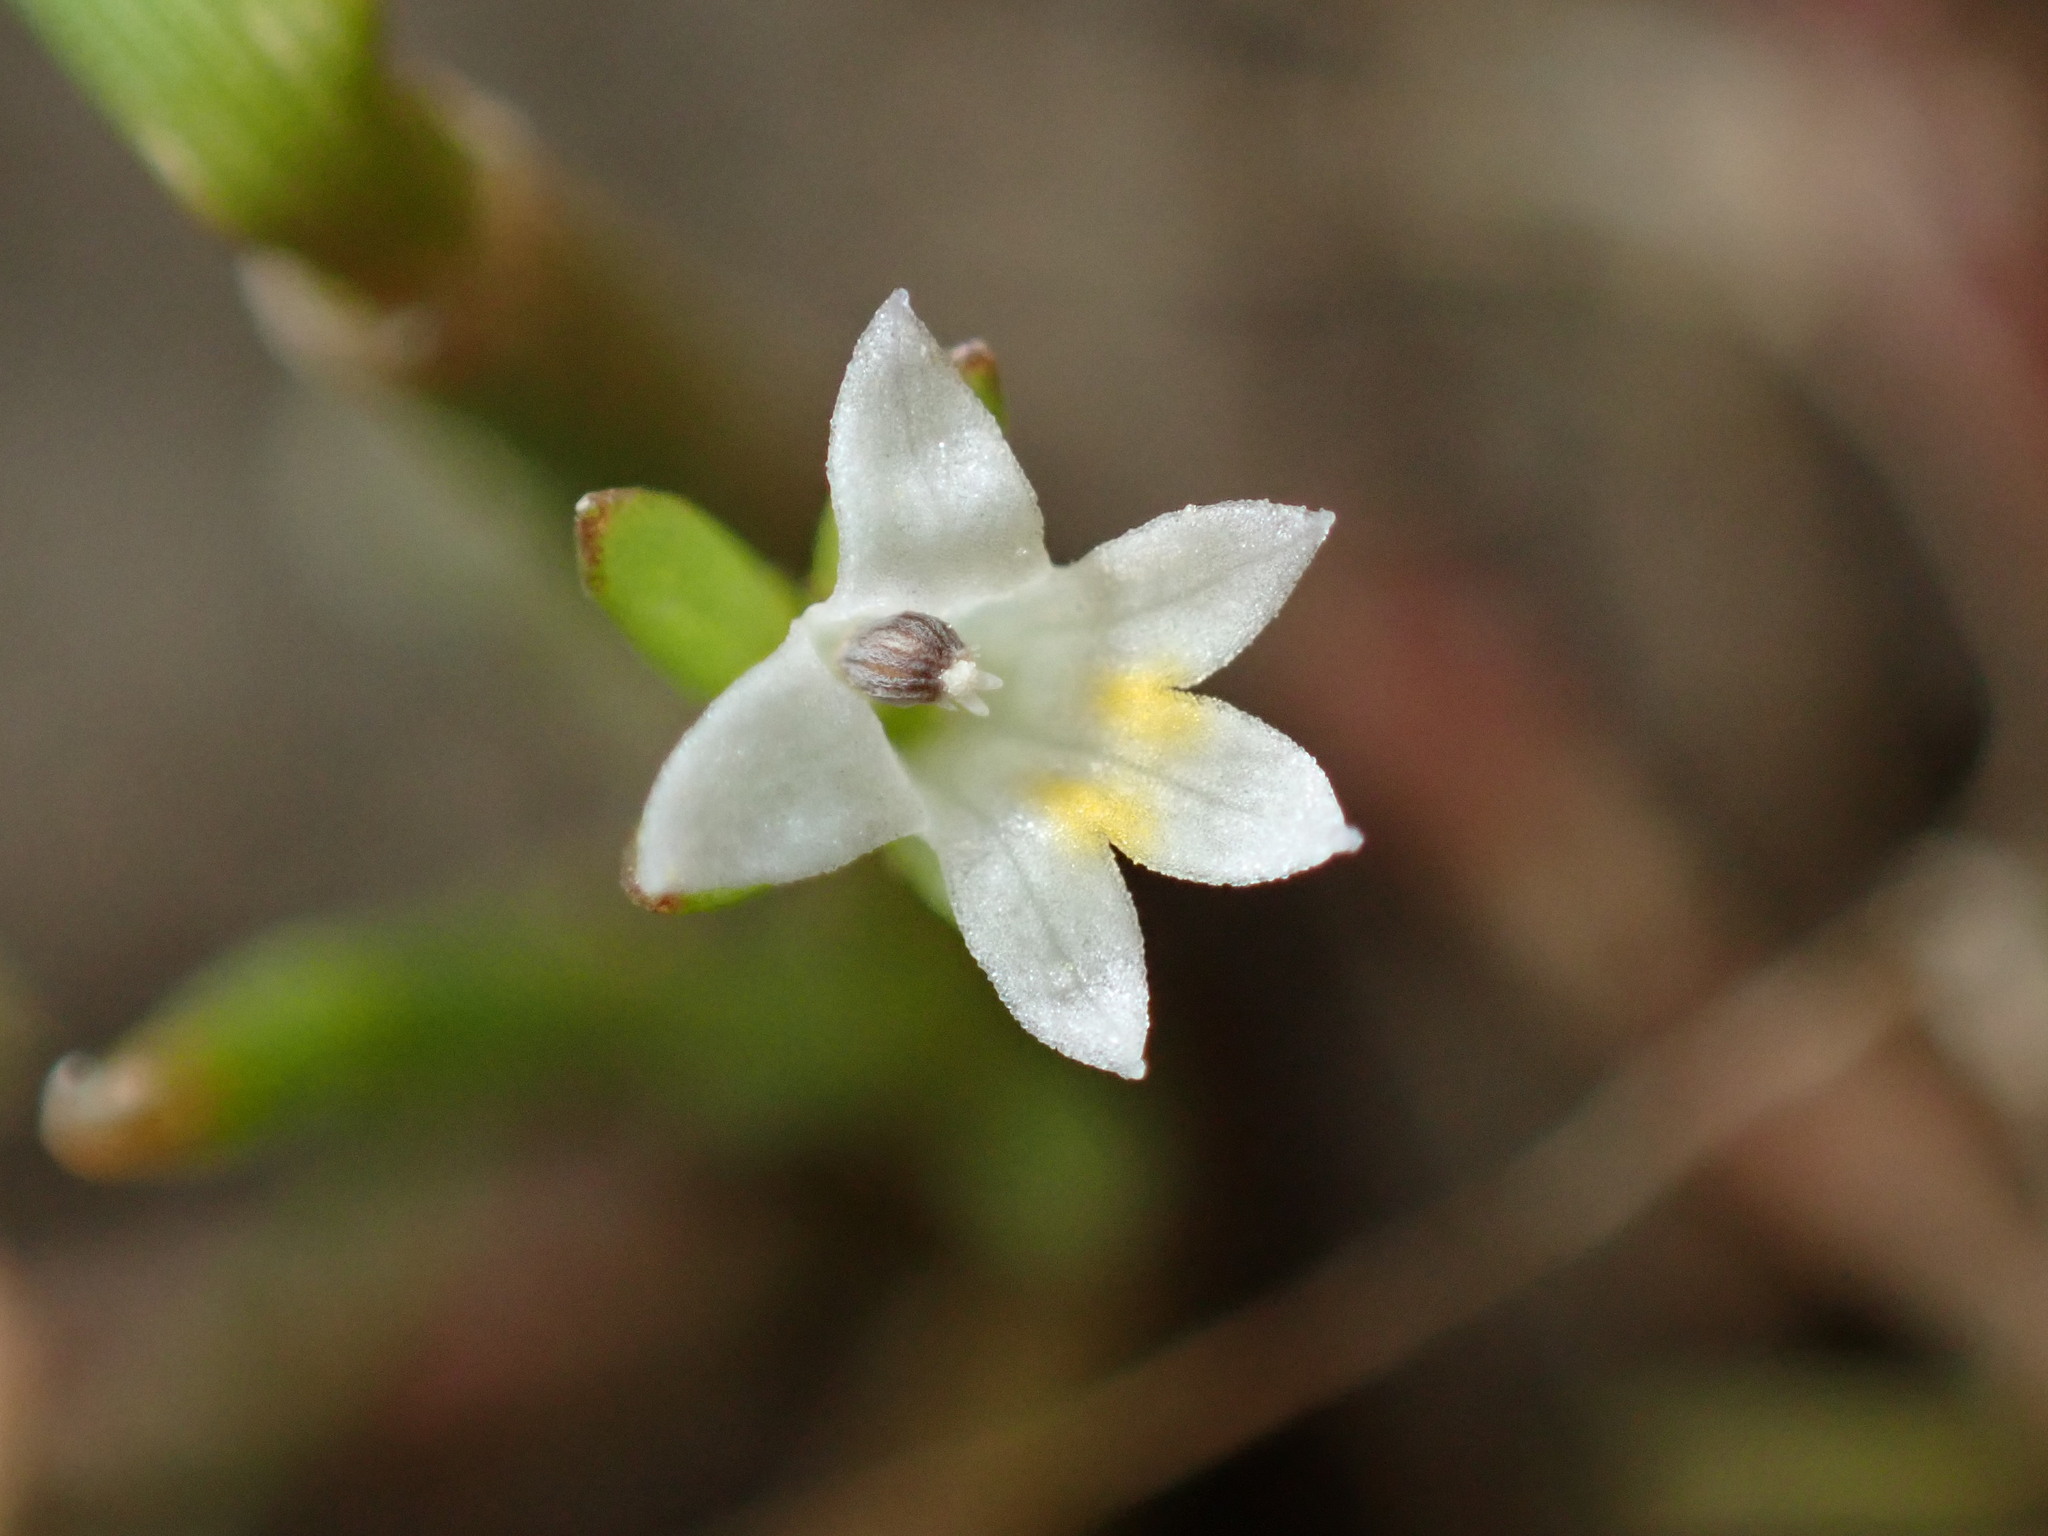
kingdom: Plantae
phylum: Tracheophyta
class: Magnoliopsida
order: Asterales
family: Campanulaceae
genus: Downingia
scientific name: Downingia pusilla
